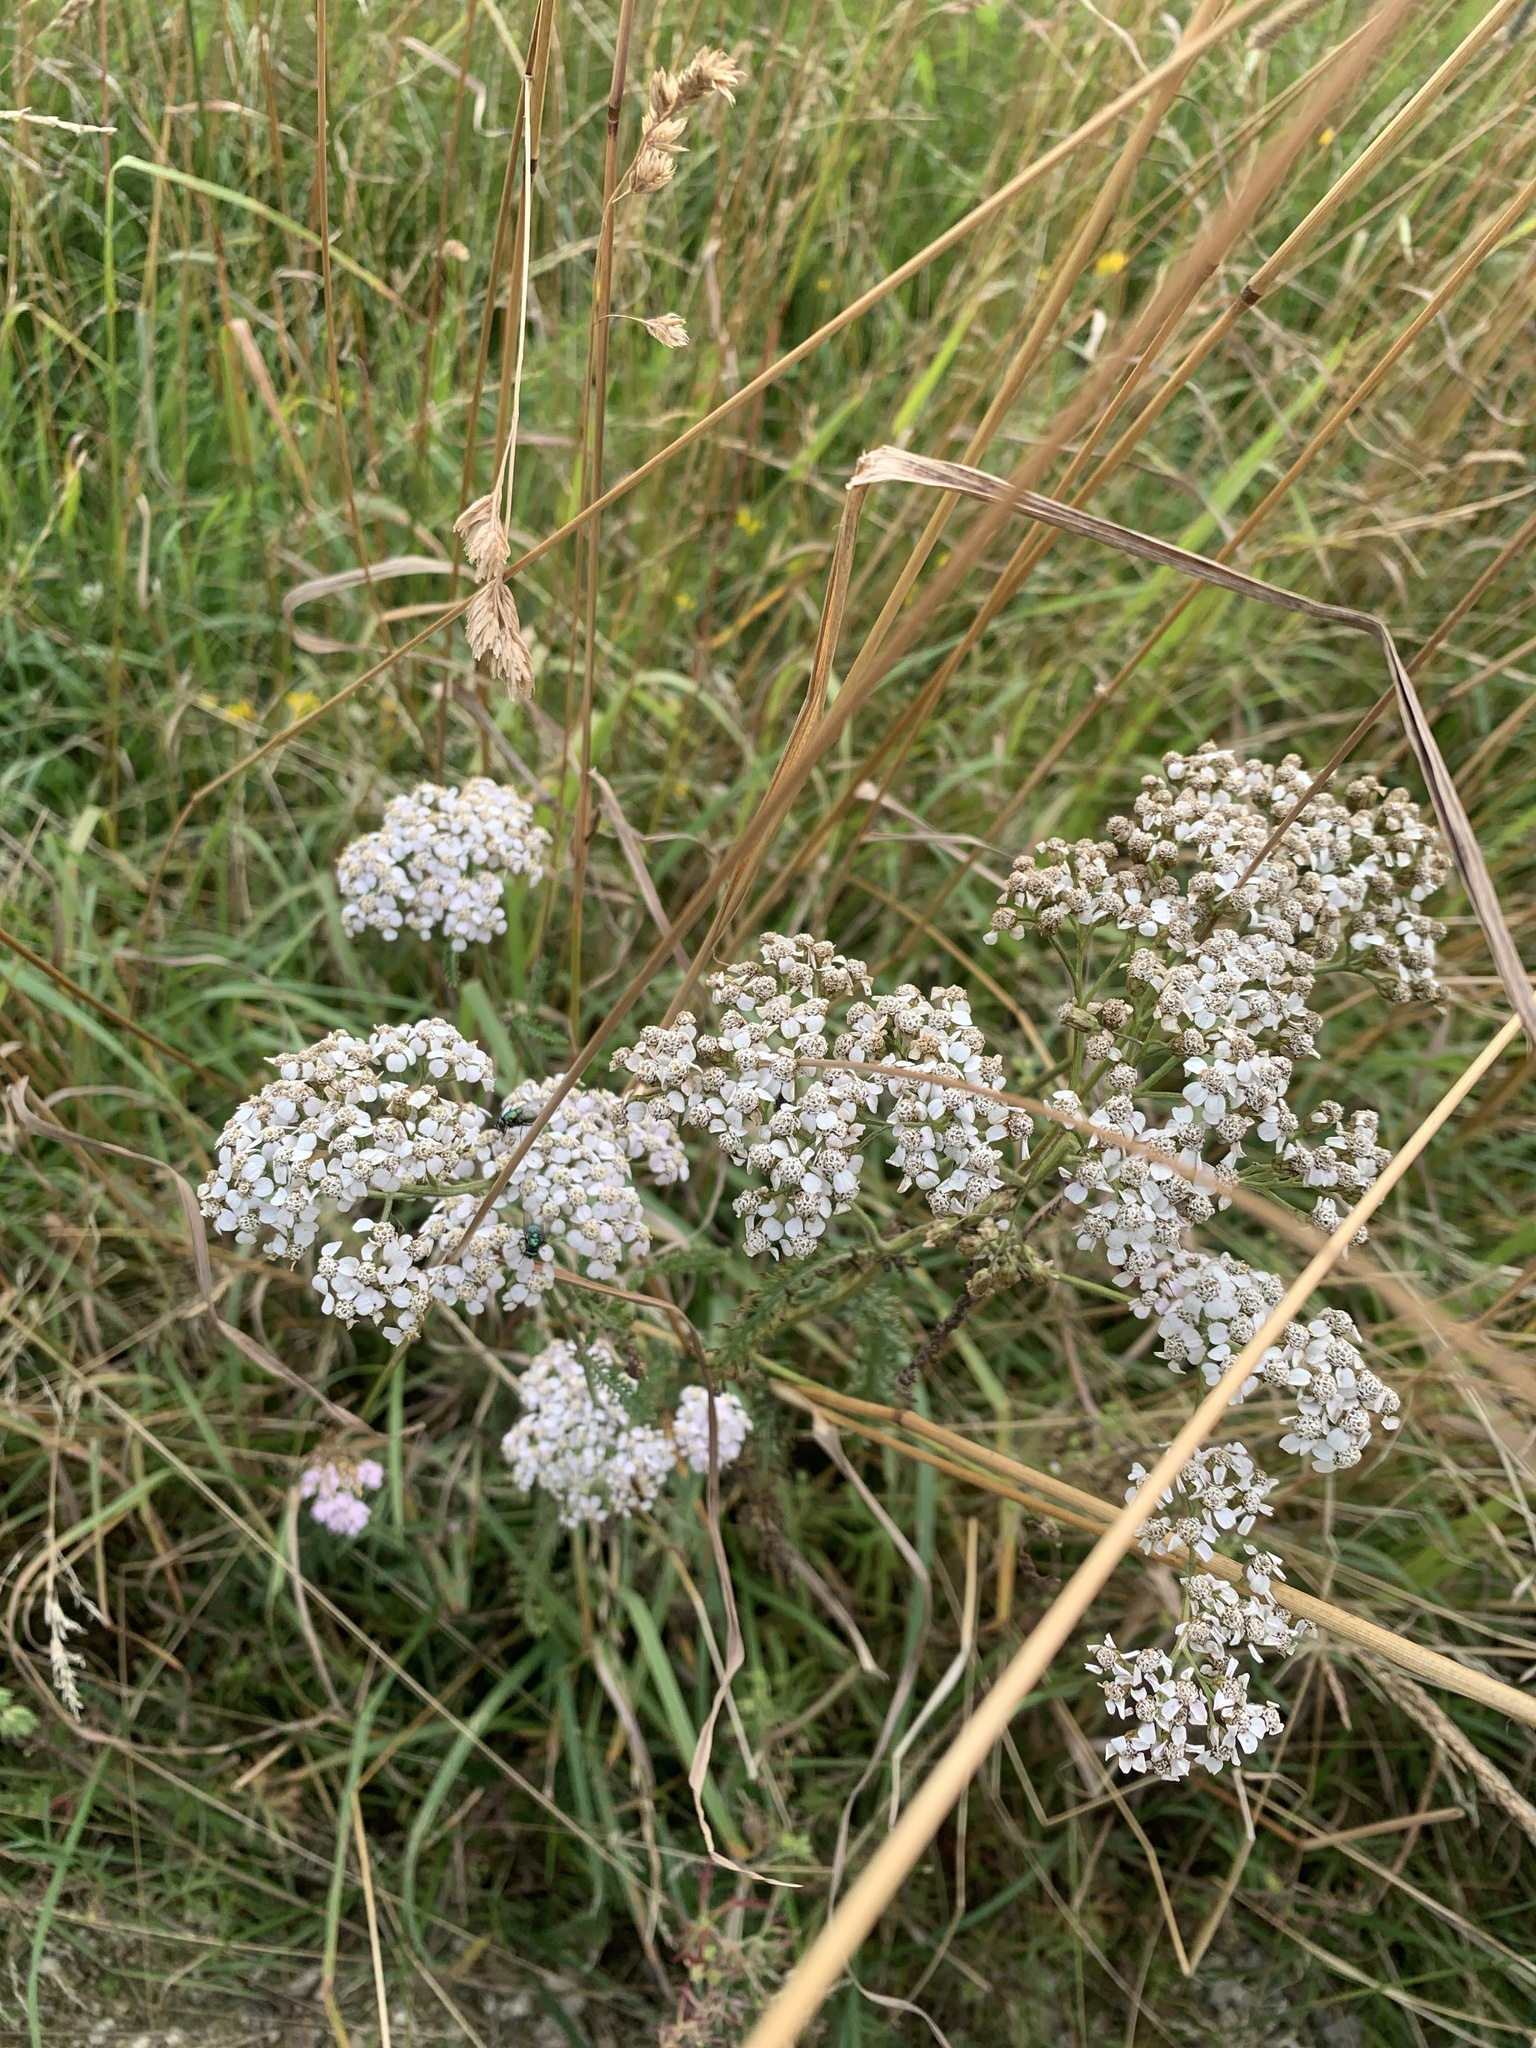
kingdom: Plantae
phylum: Tracheophyta
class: Magnoliopsida
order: Asterales
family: Asteraceae
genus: Achillea
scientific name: Achillea millefolium
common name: Yarrow
